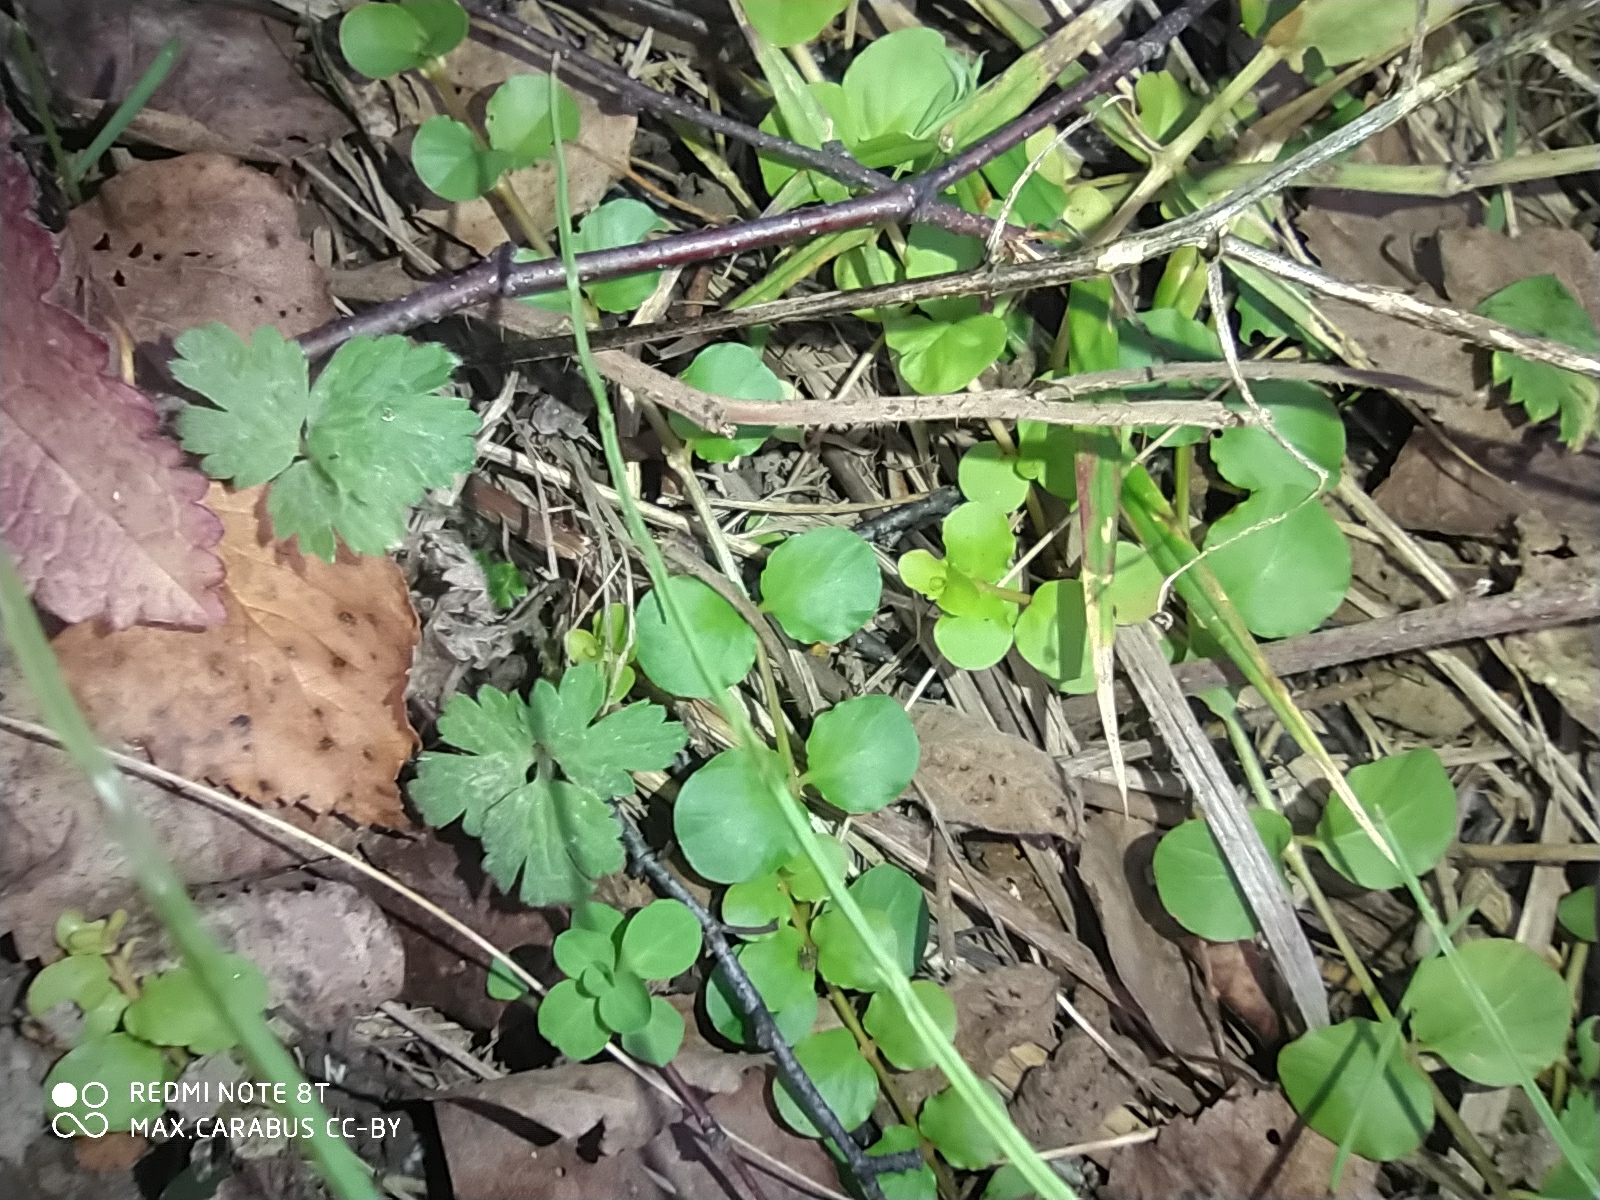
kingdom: Plantae
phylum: Tracheophyta
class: Magnoliopsida
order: Ericales
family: Primulaceae
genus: Lysimachia
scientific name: Lysimachia nummularia
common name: Moneywort
